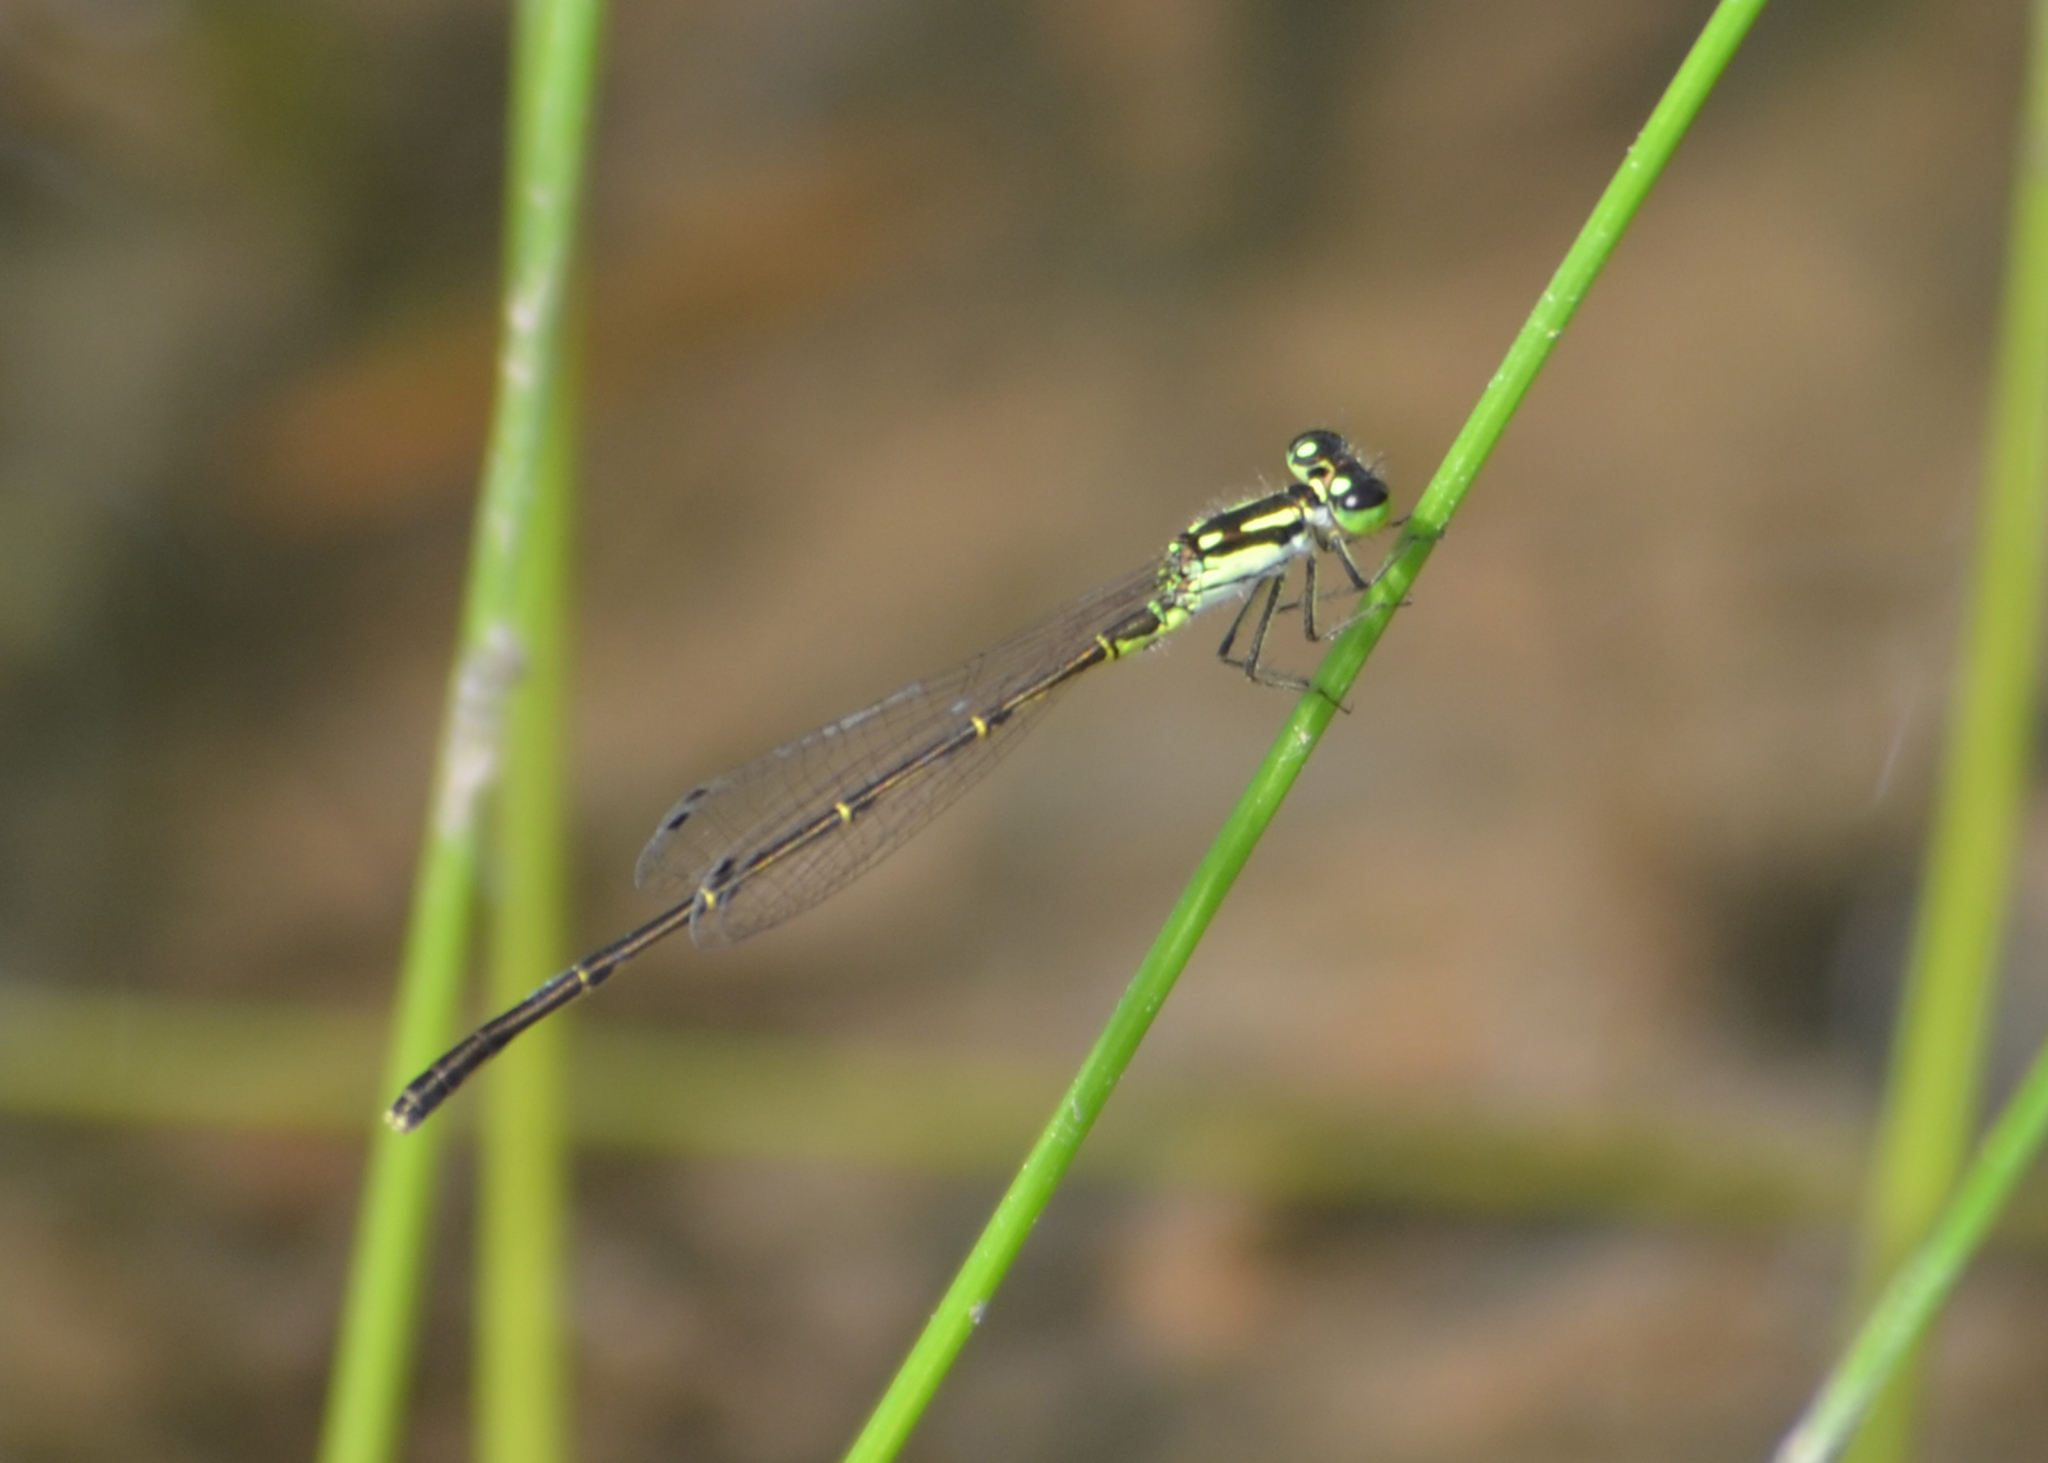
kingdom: Animalia
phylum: Arthropoda
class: Insecta
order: Odonata
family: Coenagrionidae
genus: Ischnura
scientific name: Ischnura posita
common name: Fragile forktail
